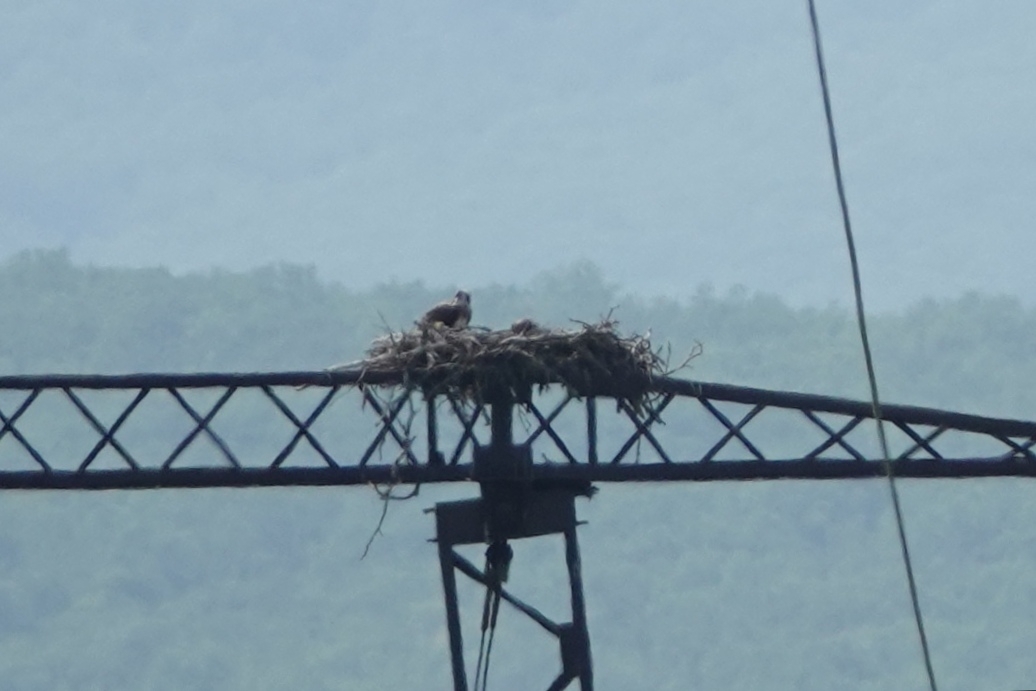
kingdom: Animalia
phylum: Chordata
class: Aves
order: Accipitriformes
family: Pandionidae
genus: Pandion
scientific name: Pandion haliaetus
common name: Osprey
